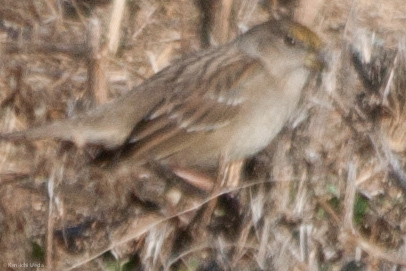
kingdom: Animalia
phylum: Chordata
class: Aves
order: Passeriformes
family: Passerellidae
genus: Zonotrichia
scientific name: Zonotrichia atricapilla
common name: Golden-crowned sparrow
